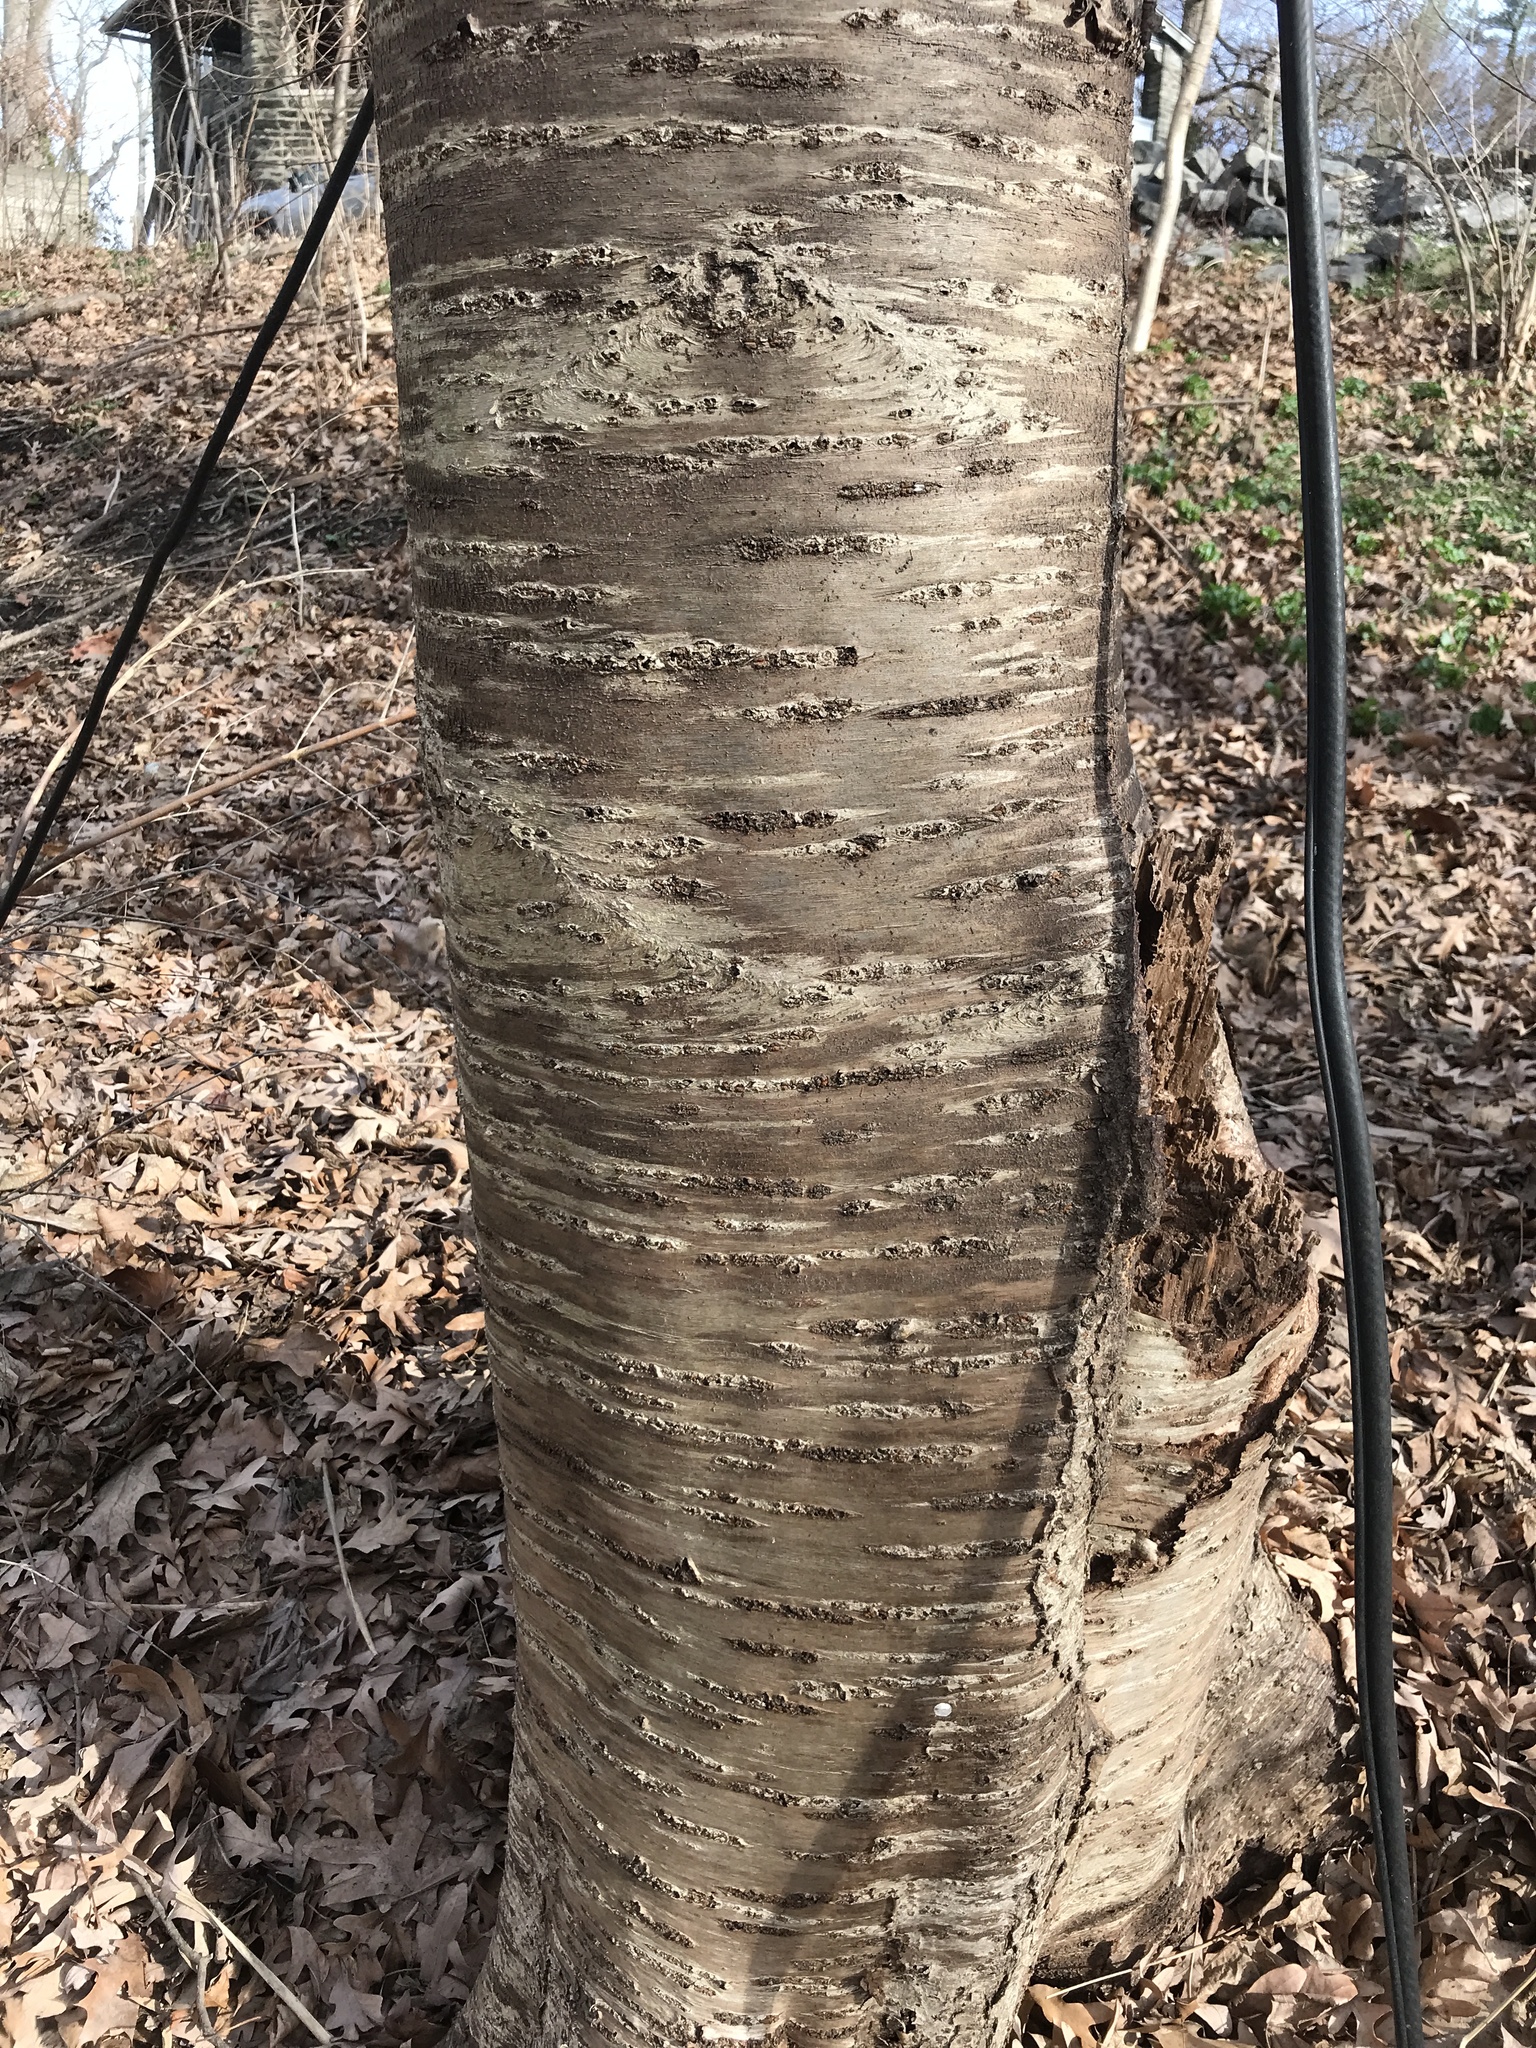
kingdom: Plantae
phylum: Tracheophyta
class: Magnoliopsida
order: Rosales
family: Rosaceae
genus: Prunus
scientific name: Prunus avium
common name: Sweet cherry
